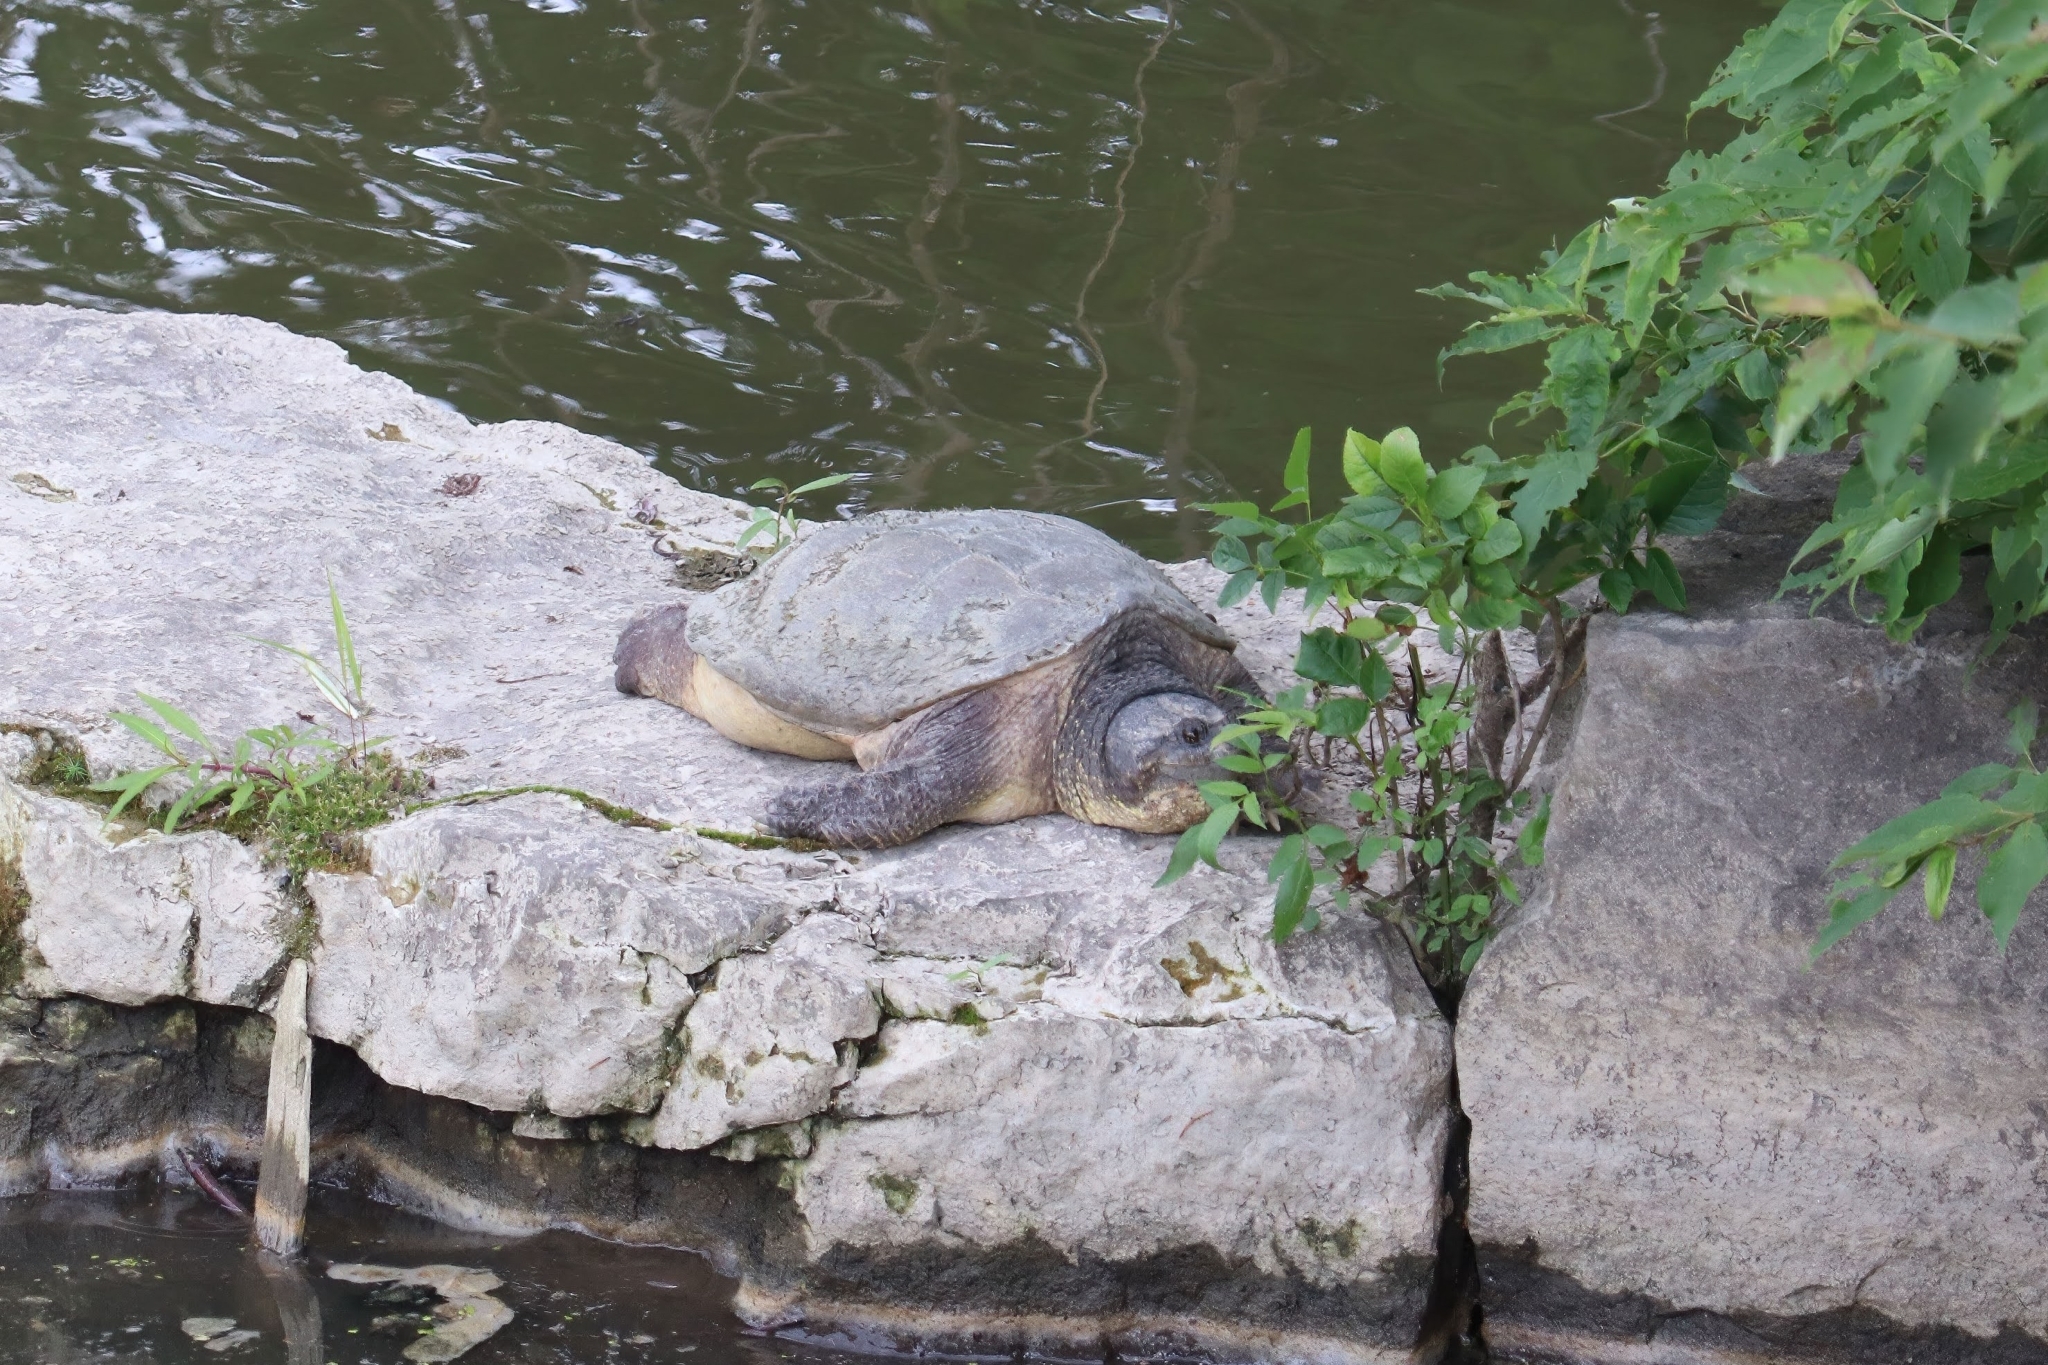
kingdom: Animalia
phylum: Chordata
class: Testudines
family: Chelydridae
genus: Chelydra
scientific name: Chelydra serpentina
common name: Common snapping turtle
